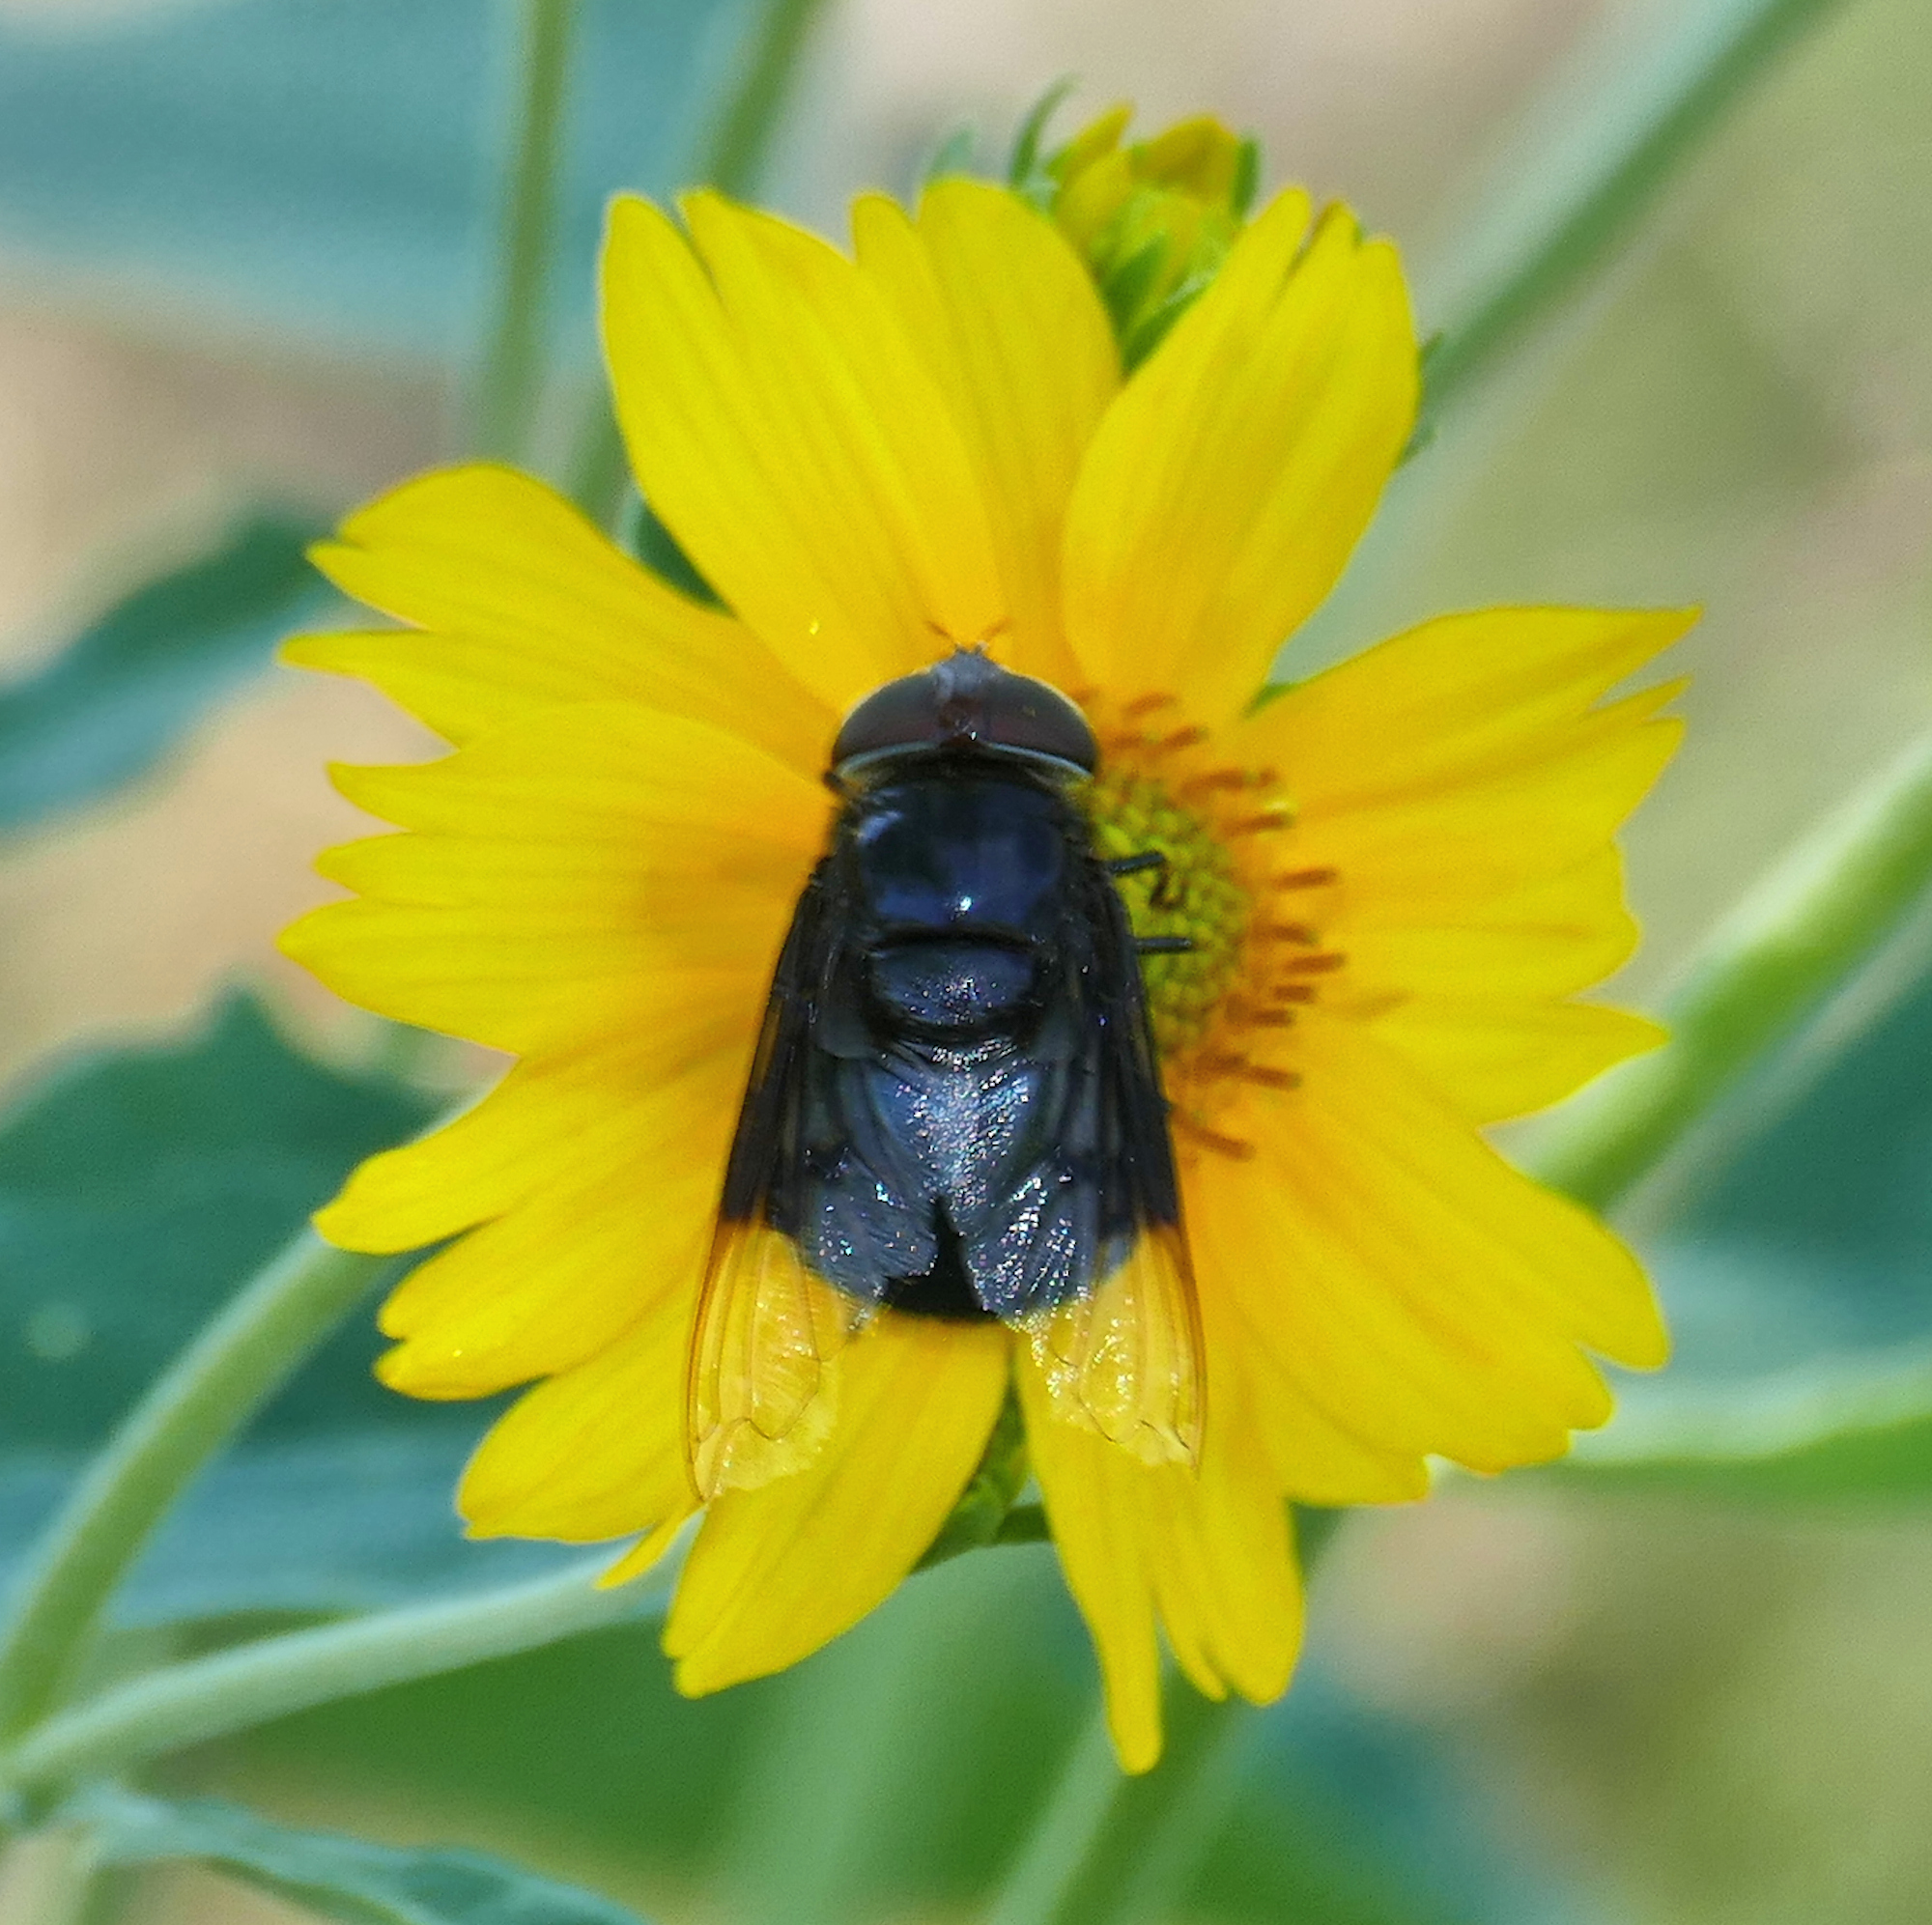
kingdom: Animalia
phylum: Arthropoda
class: Insecta
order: Diptera
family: Syrphidae
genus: Copestylum
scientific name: Copestylum
